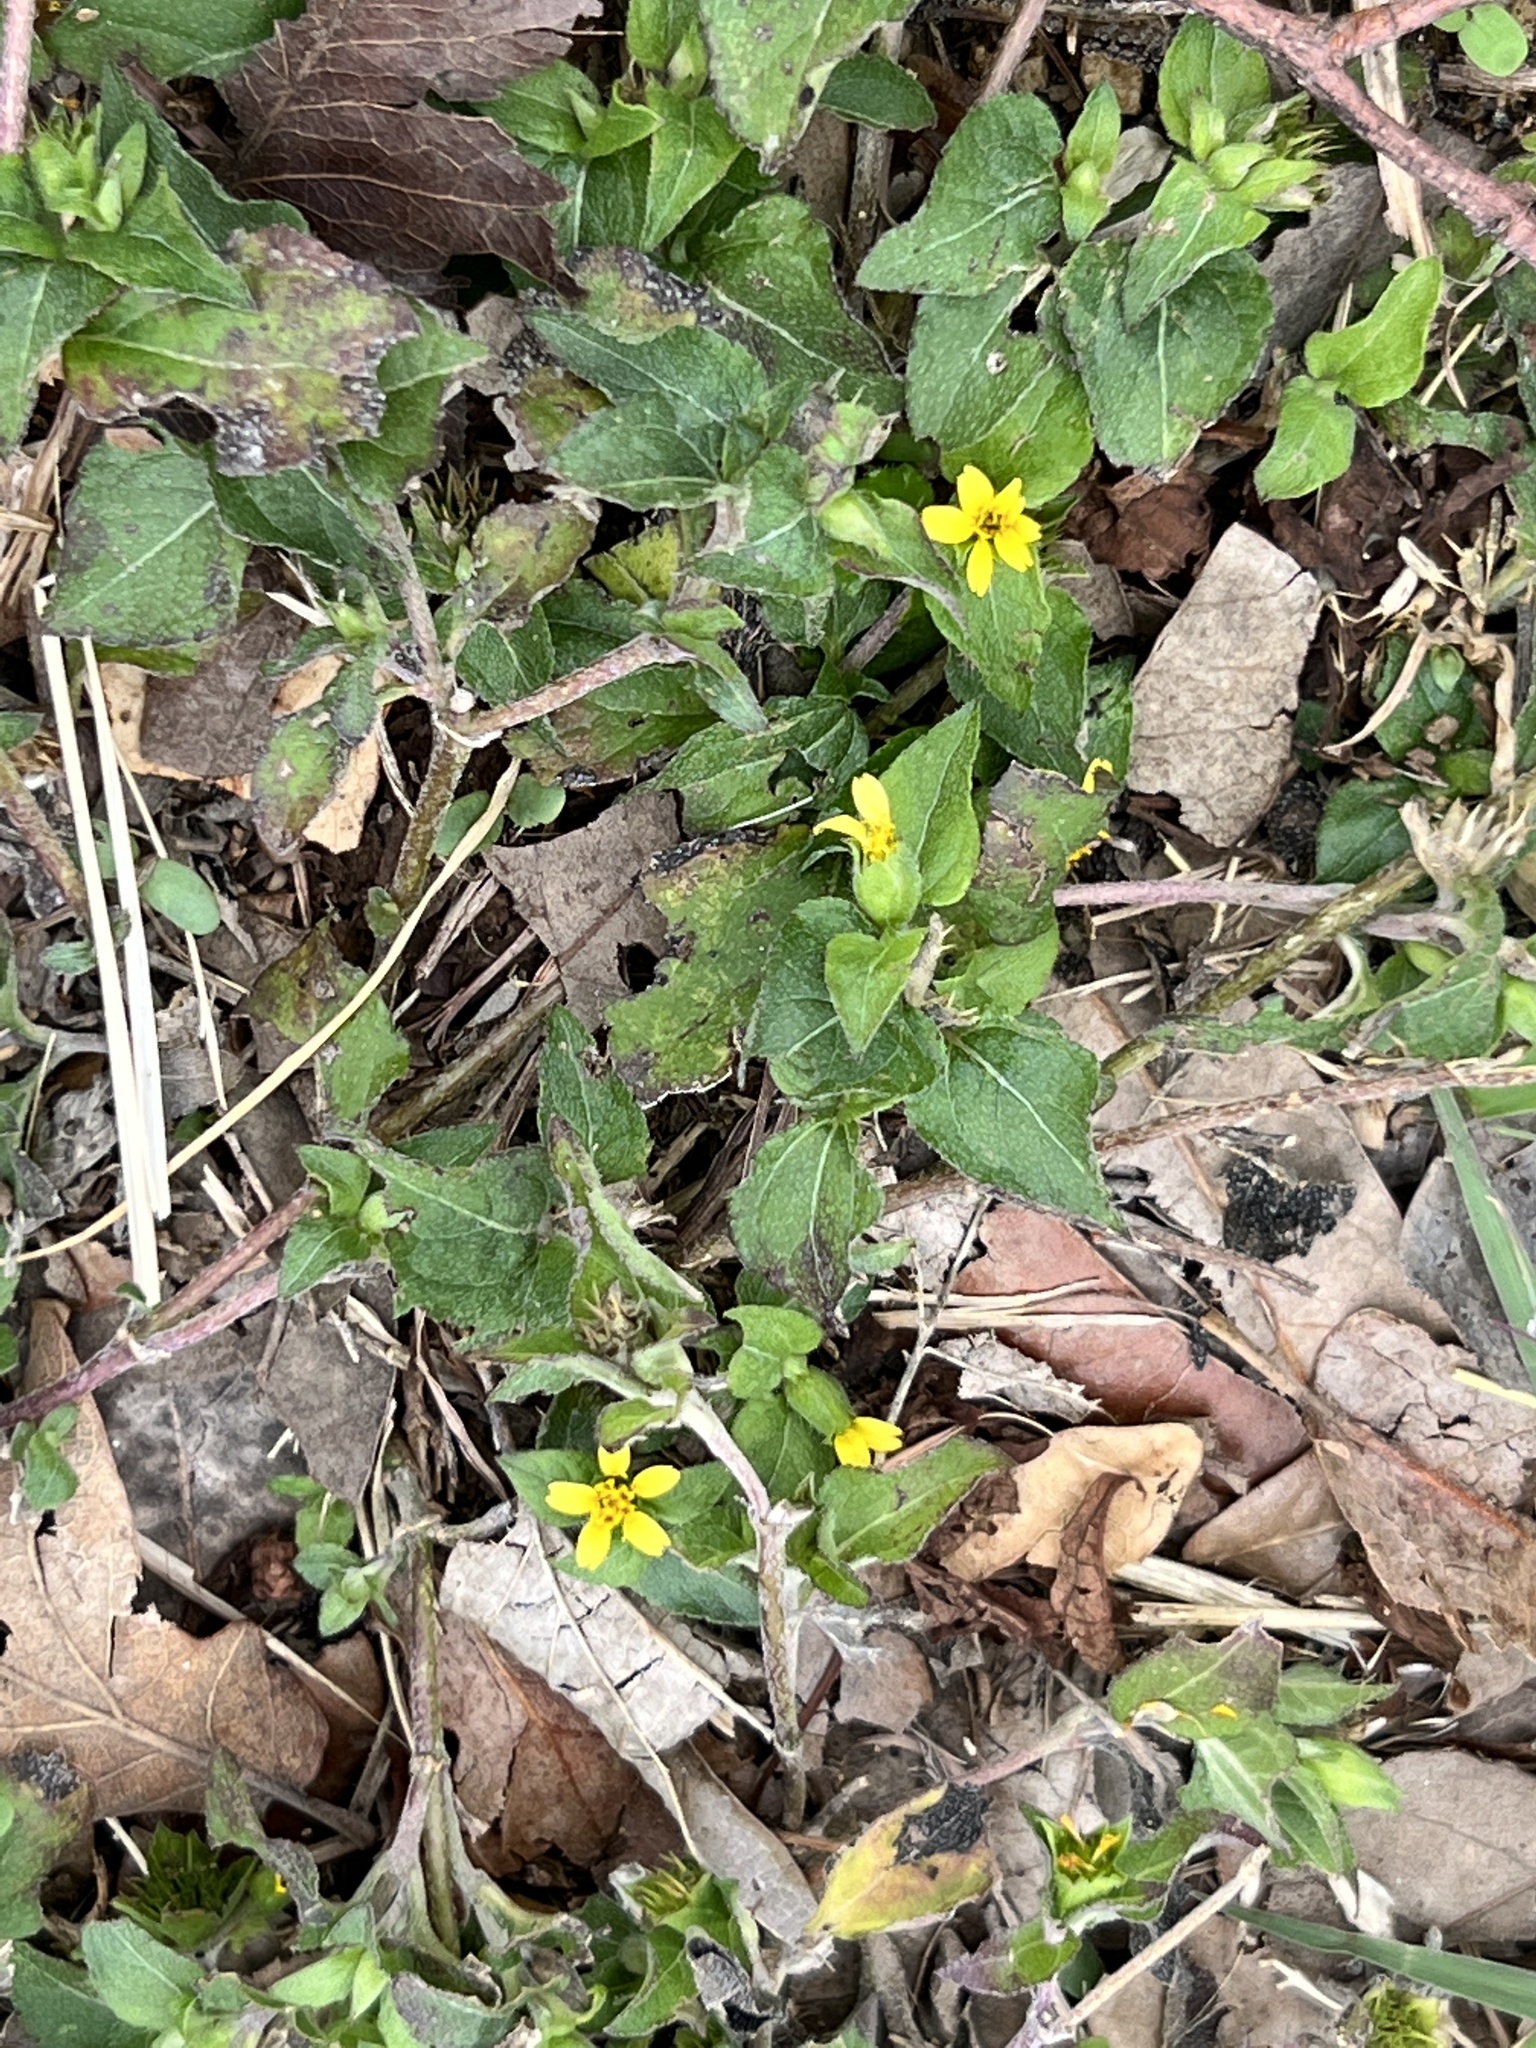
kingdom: Plantae
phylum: Tracheophyta
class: Magnoliopsida
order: Asterales
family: Asteraceae
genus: Calyptocarpus
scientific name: Calyptocarpus vialis
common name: Straggler daisy
